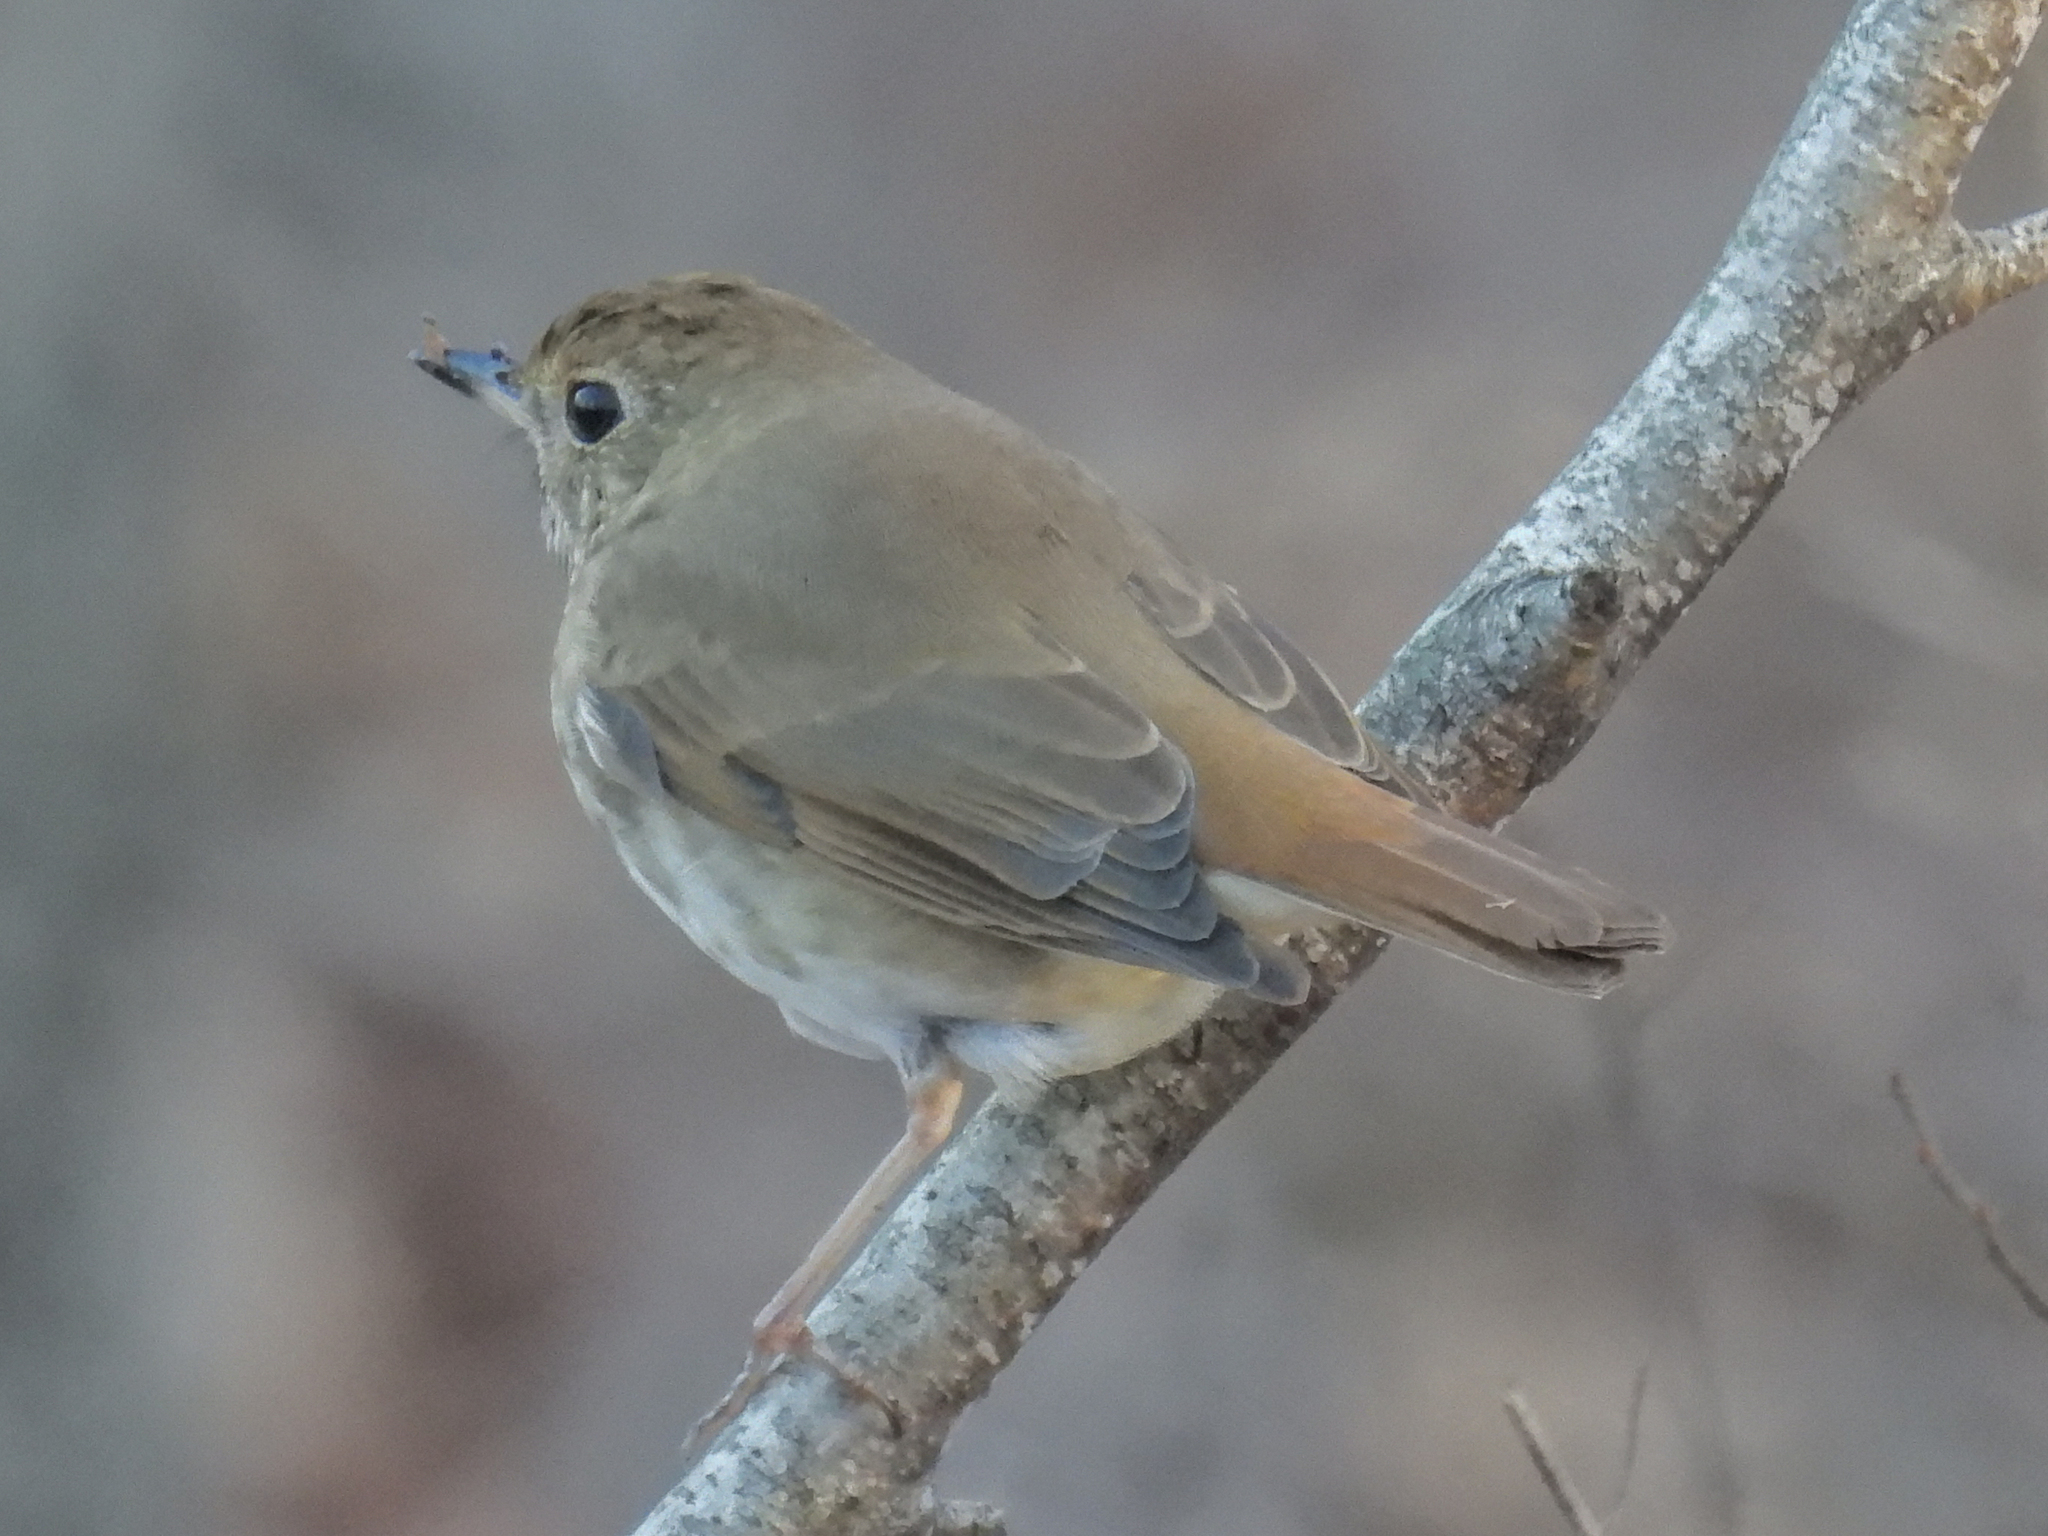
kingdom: Animalia
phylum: Chordata
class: Aves
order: Passeriformes
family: Turdidae
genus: Catharus
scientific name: Catharus guttatus
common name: Hermit thrush
